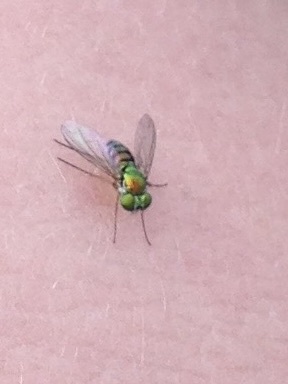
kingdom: Animalia
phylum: Arthropoda
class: Insecta
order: Diptera
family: Dolichopodidae
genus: Condylostylus
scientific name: Condylostylus
